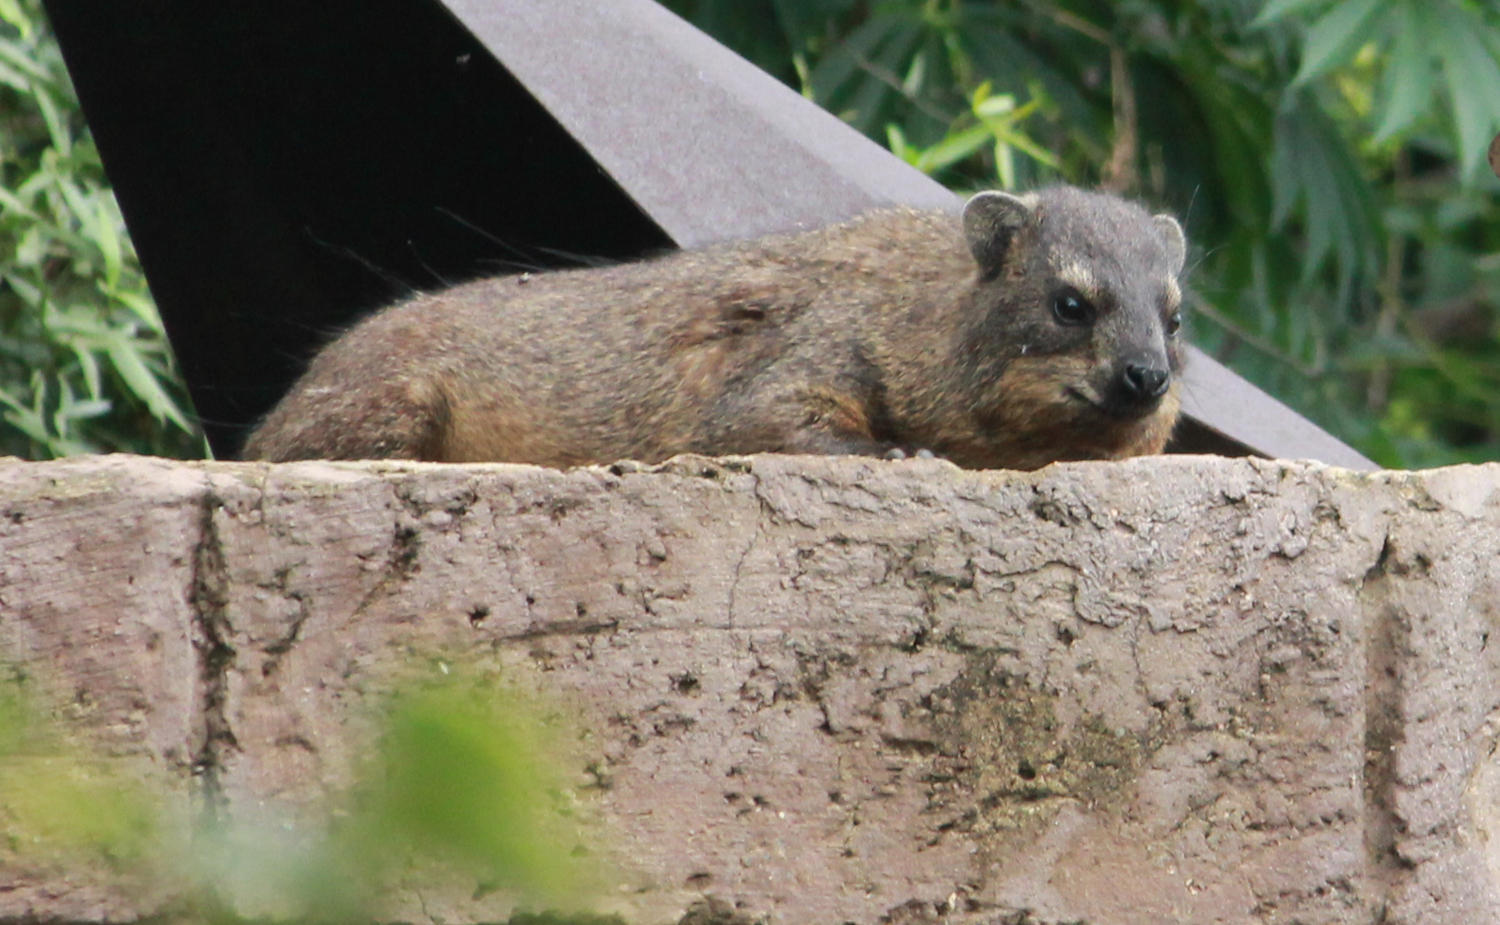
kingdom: Animalia
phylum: Chordata
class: Mammalia
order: Hyracoidea
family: Procaviidae
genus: Procavia
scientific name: Procavia capensis
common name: Rock hyrax
